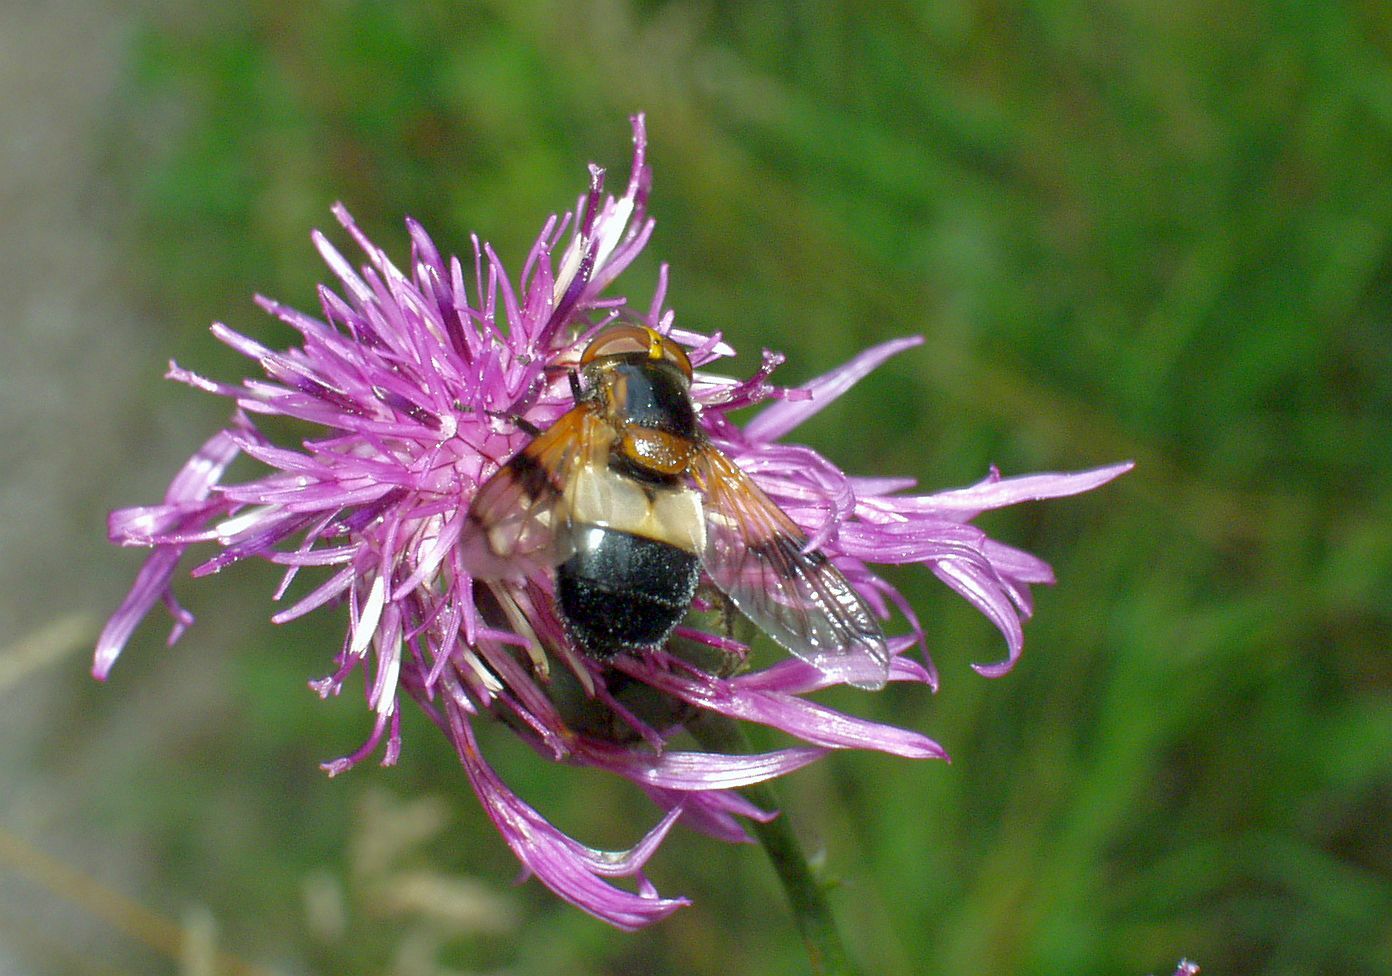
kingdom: Animalia
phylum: Arthropoda
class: Insecta
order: Diptera
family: Syrphidae
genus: Volucella
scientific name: Volucella pellucens
